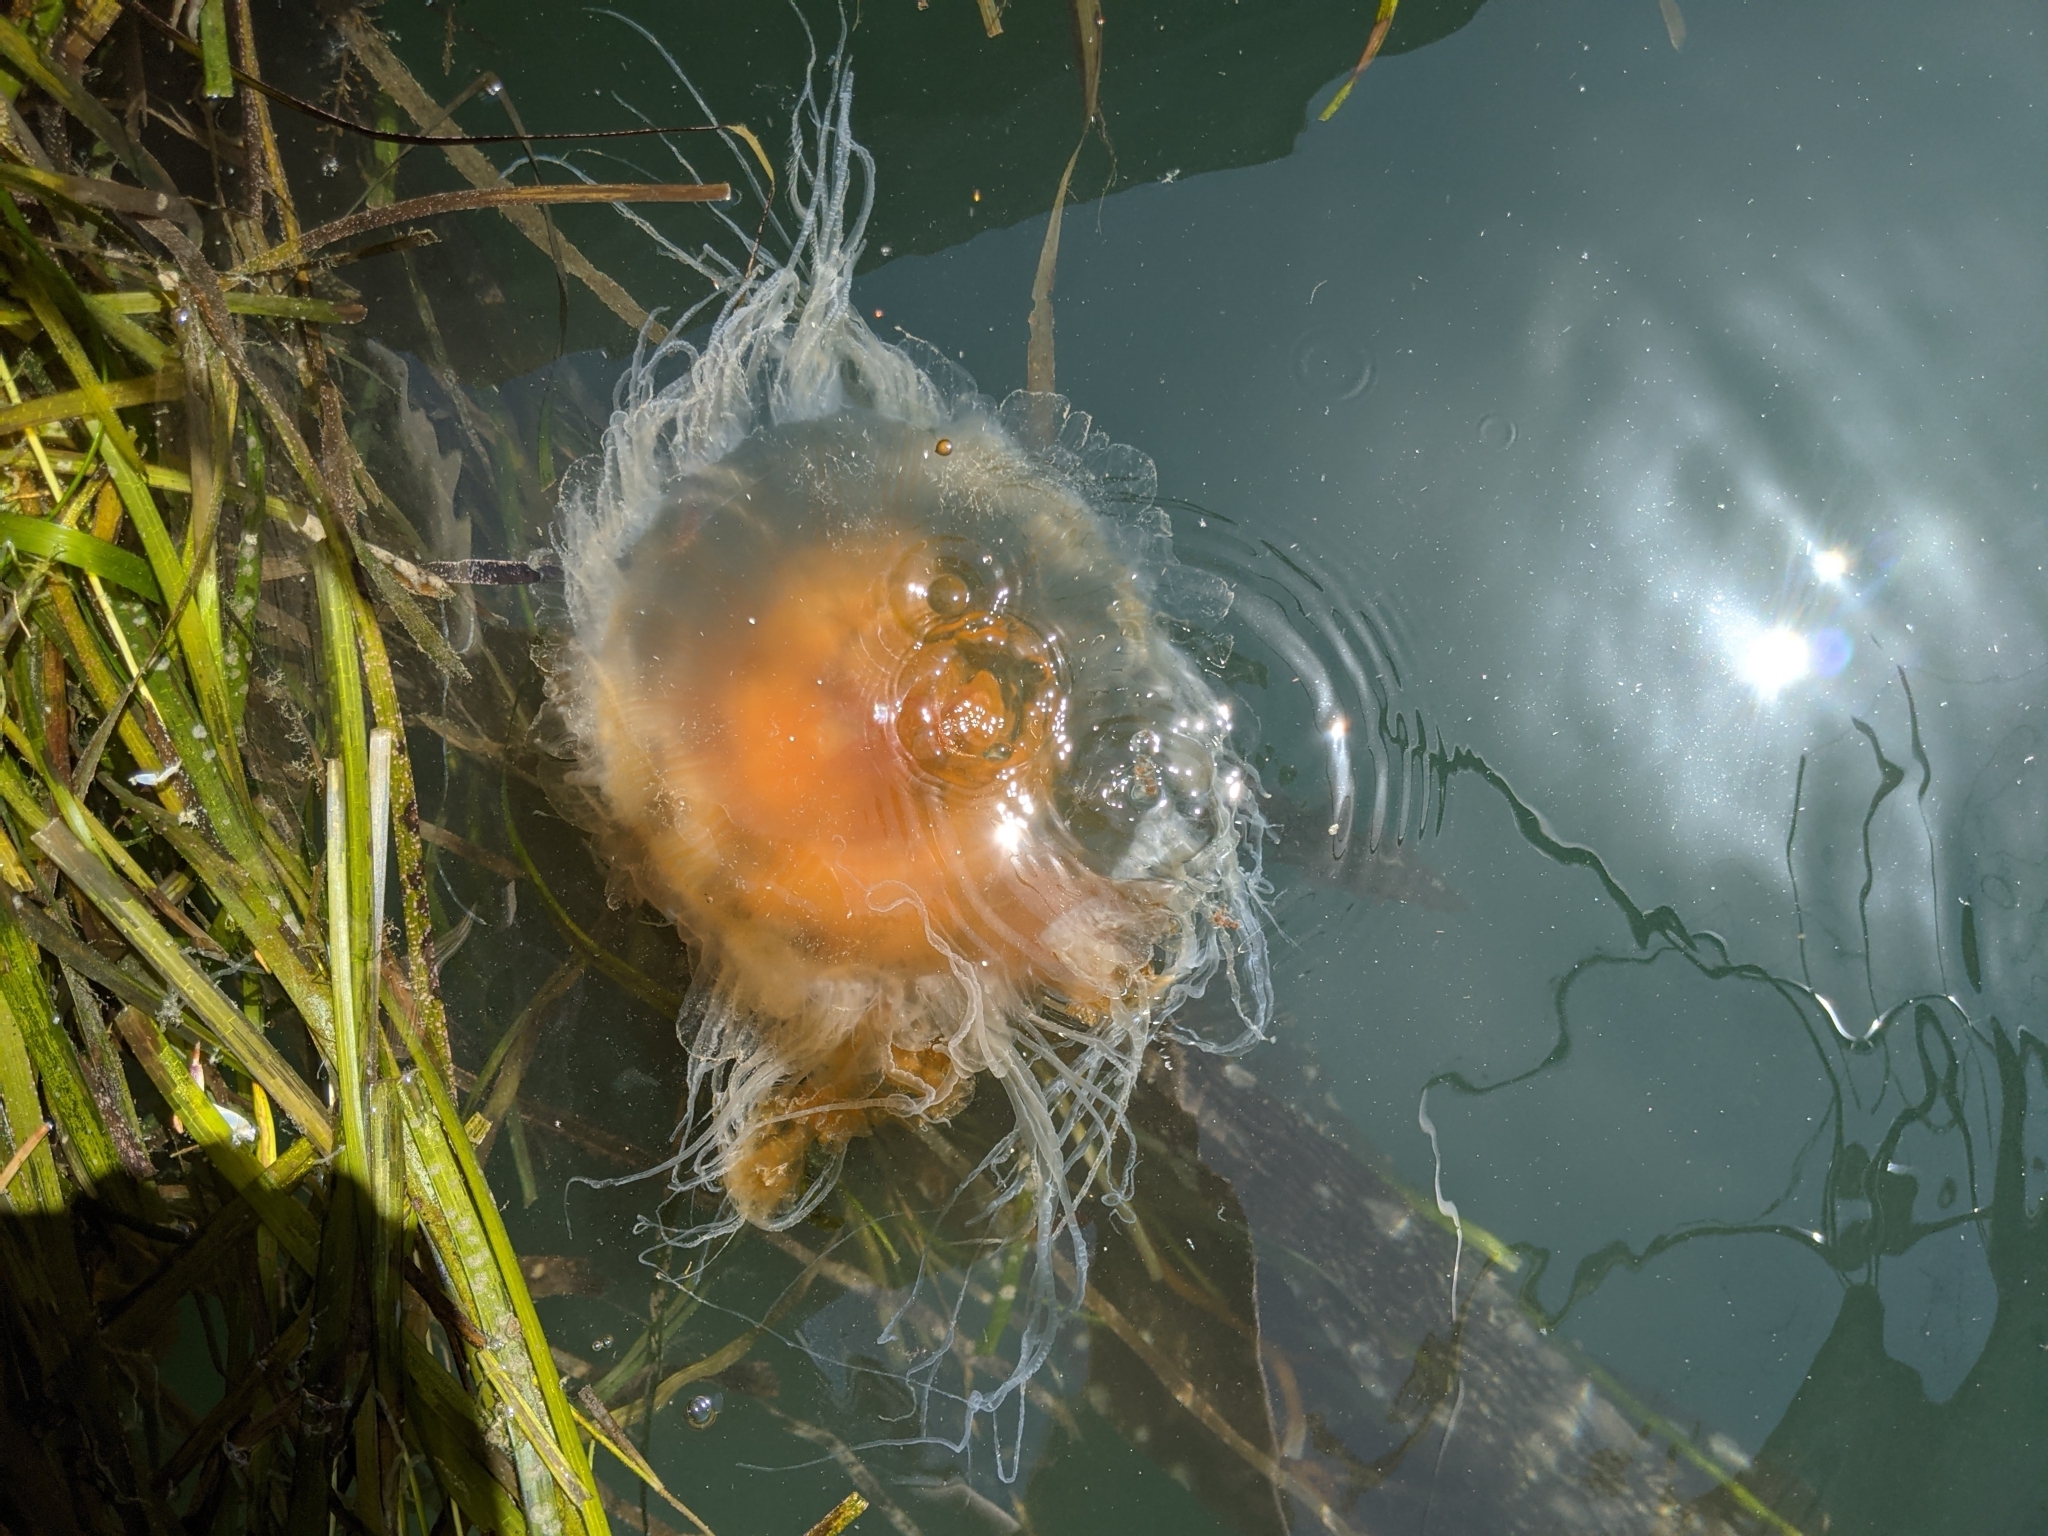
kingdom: Animalia
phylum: Cnidaria
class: Scyphozoa
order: Semaeostomeae
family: Phacellophoridae
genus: Phacellophora
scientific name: Phacellophora camtschatica
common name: Fried-egg jellyfish
